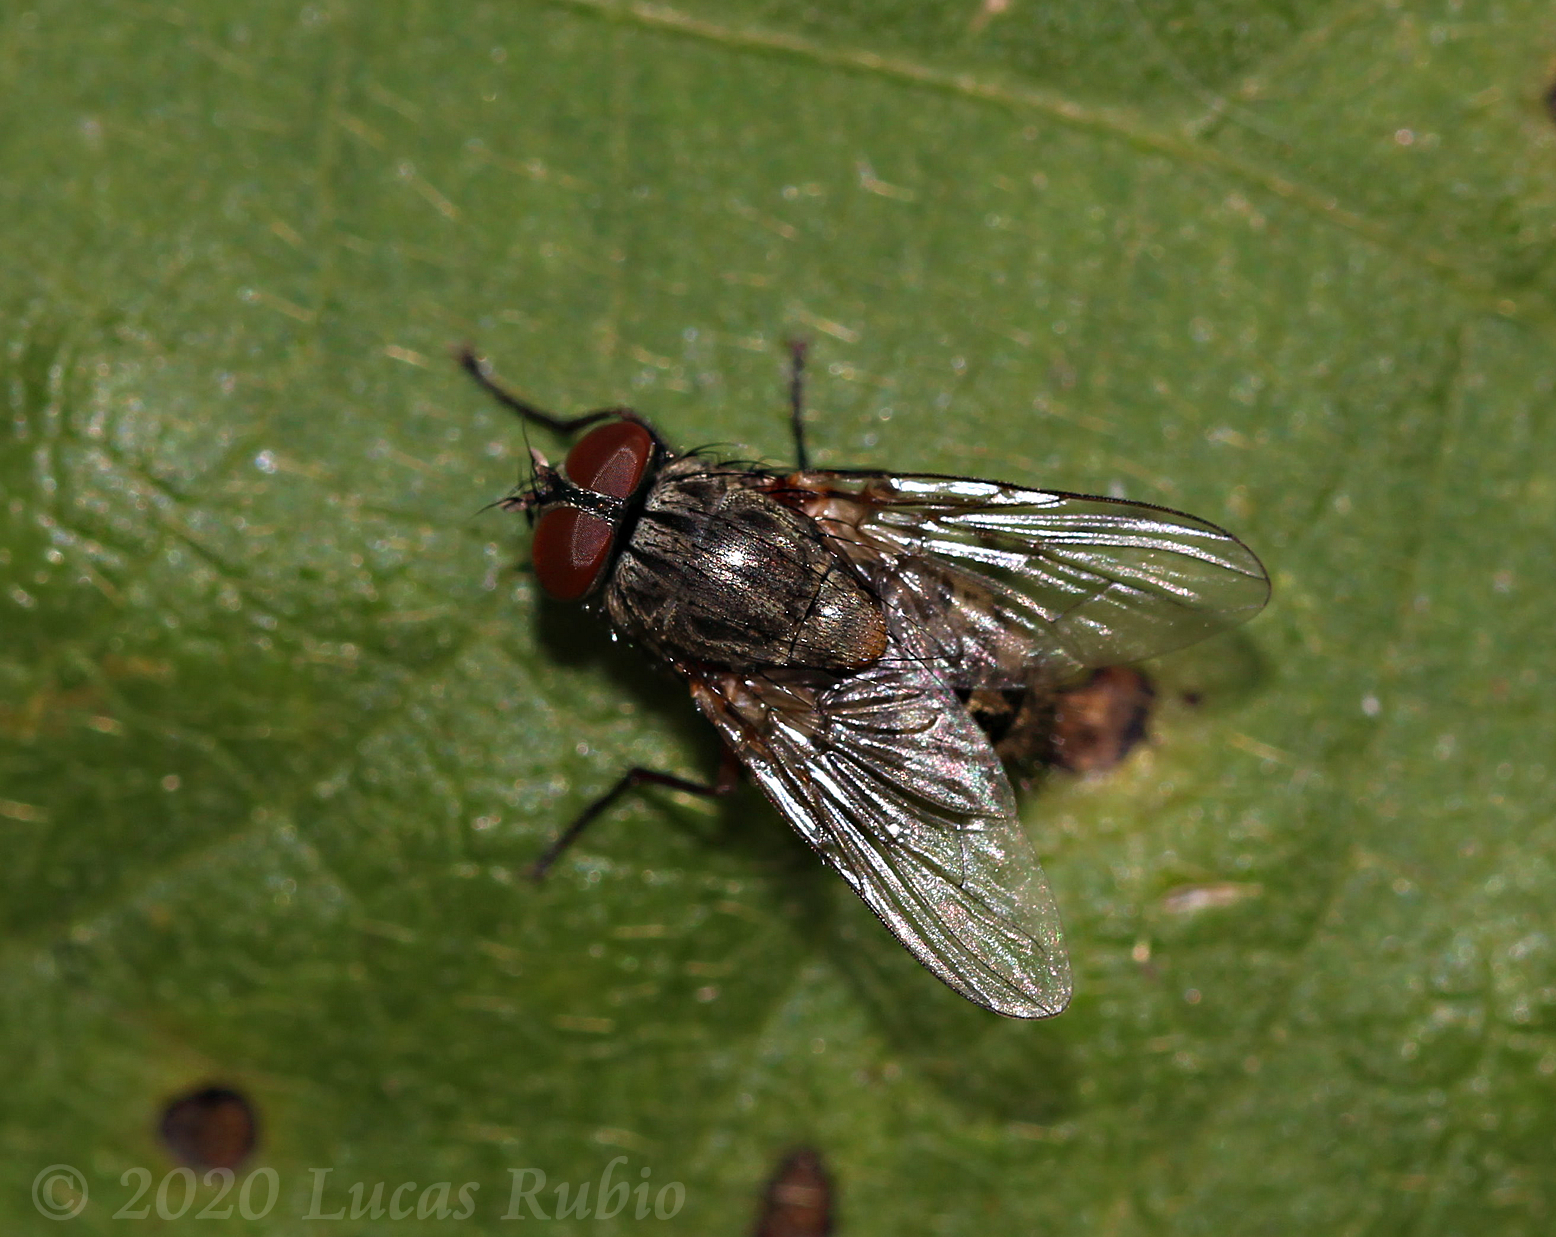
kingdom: Animalia
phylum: Arthropoda
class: Insecta
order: Diptera
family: Muscidae
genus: Muscina
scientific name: Muscina stabulans
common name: False stable fly
